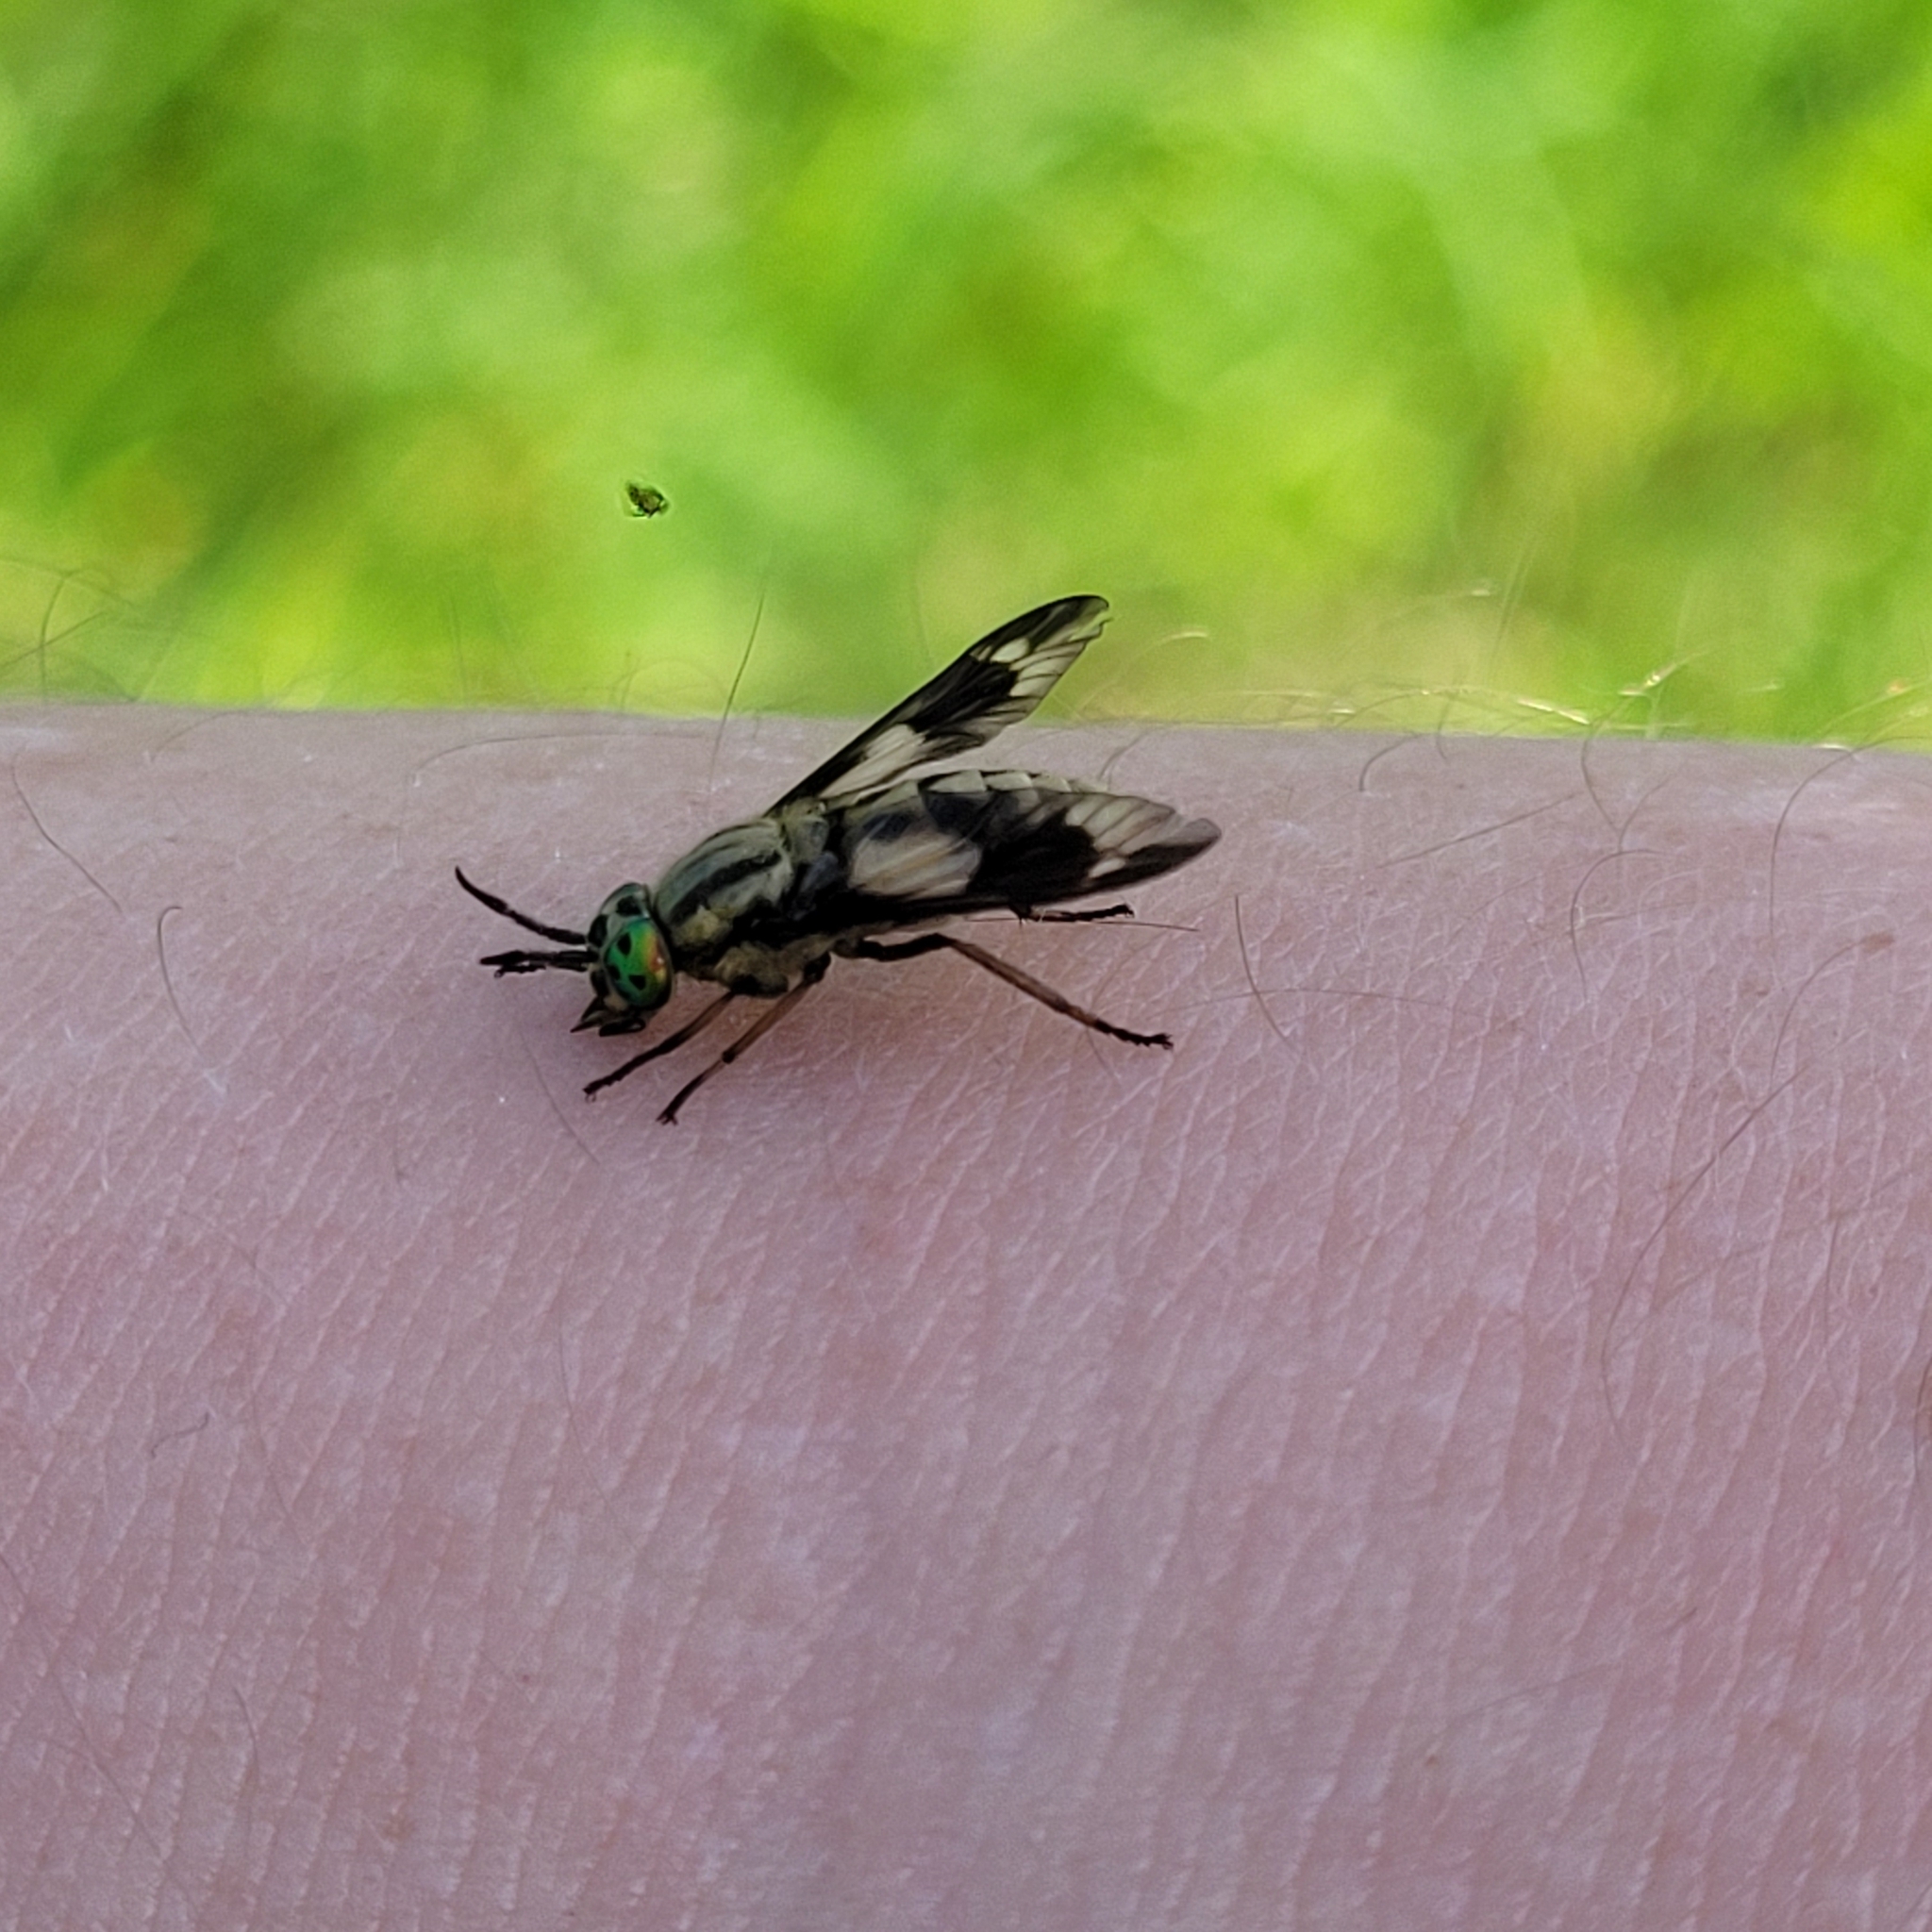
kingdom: Animalia
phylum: Arthropoda
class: Insecta
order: Diptera
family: Tabanidae
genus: Chrysops
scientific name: Chrysops relictus
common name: Twin-lobed deerfly
